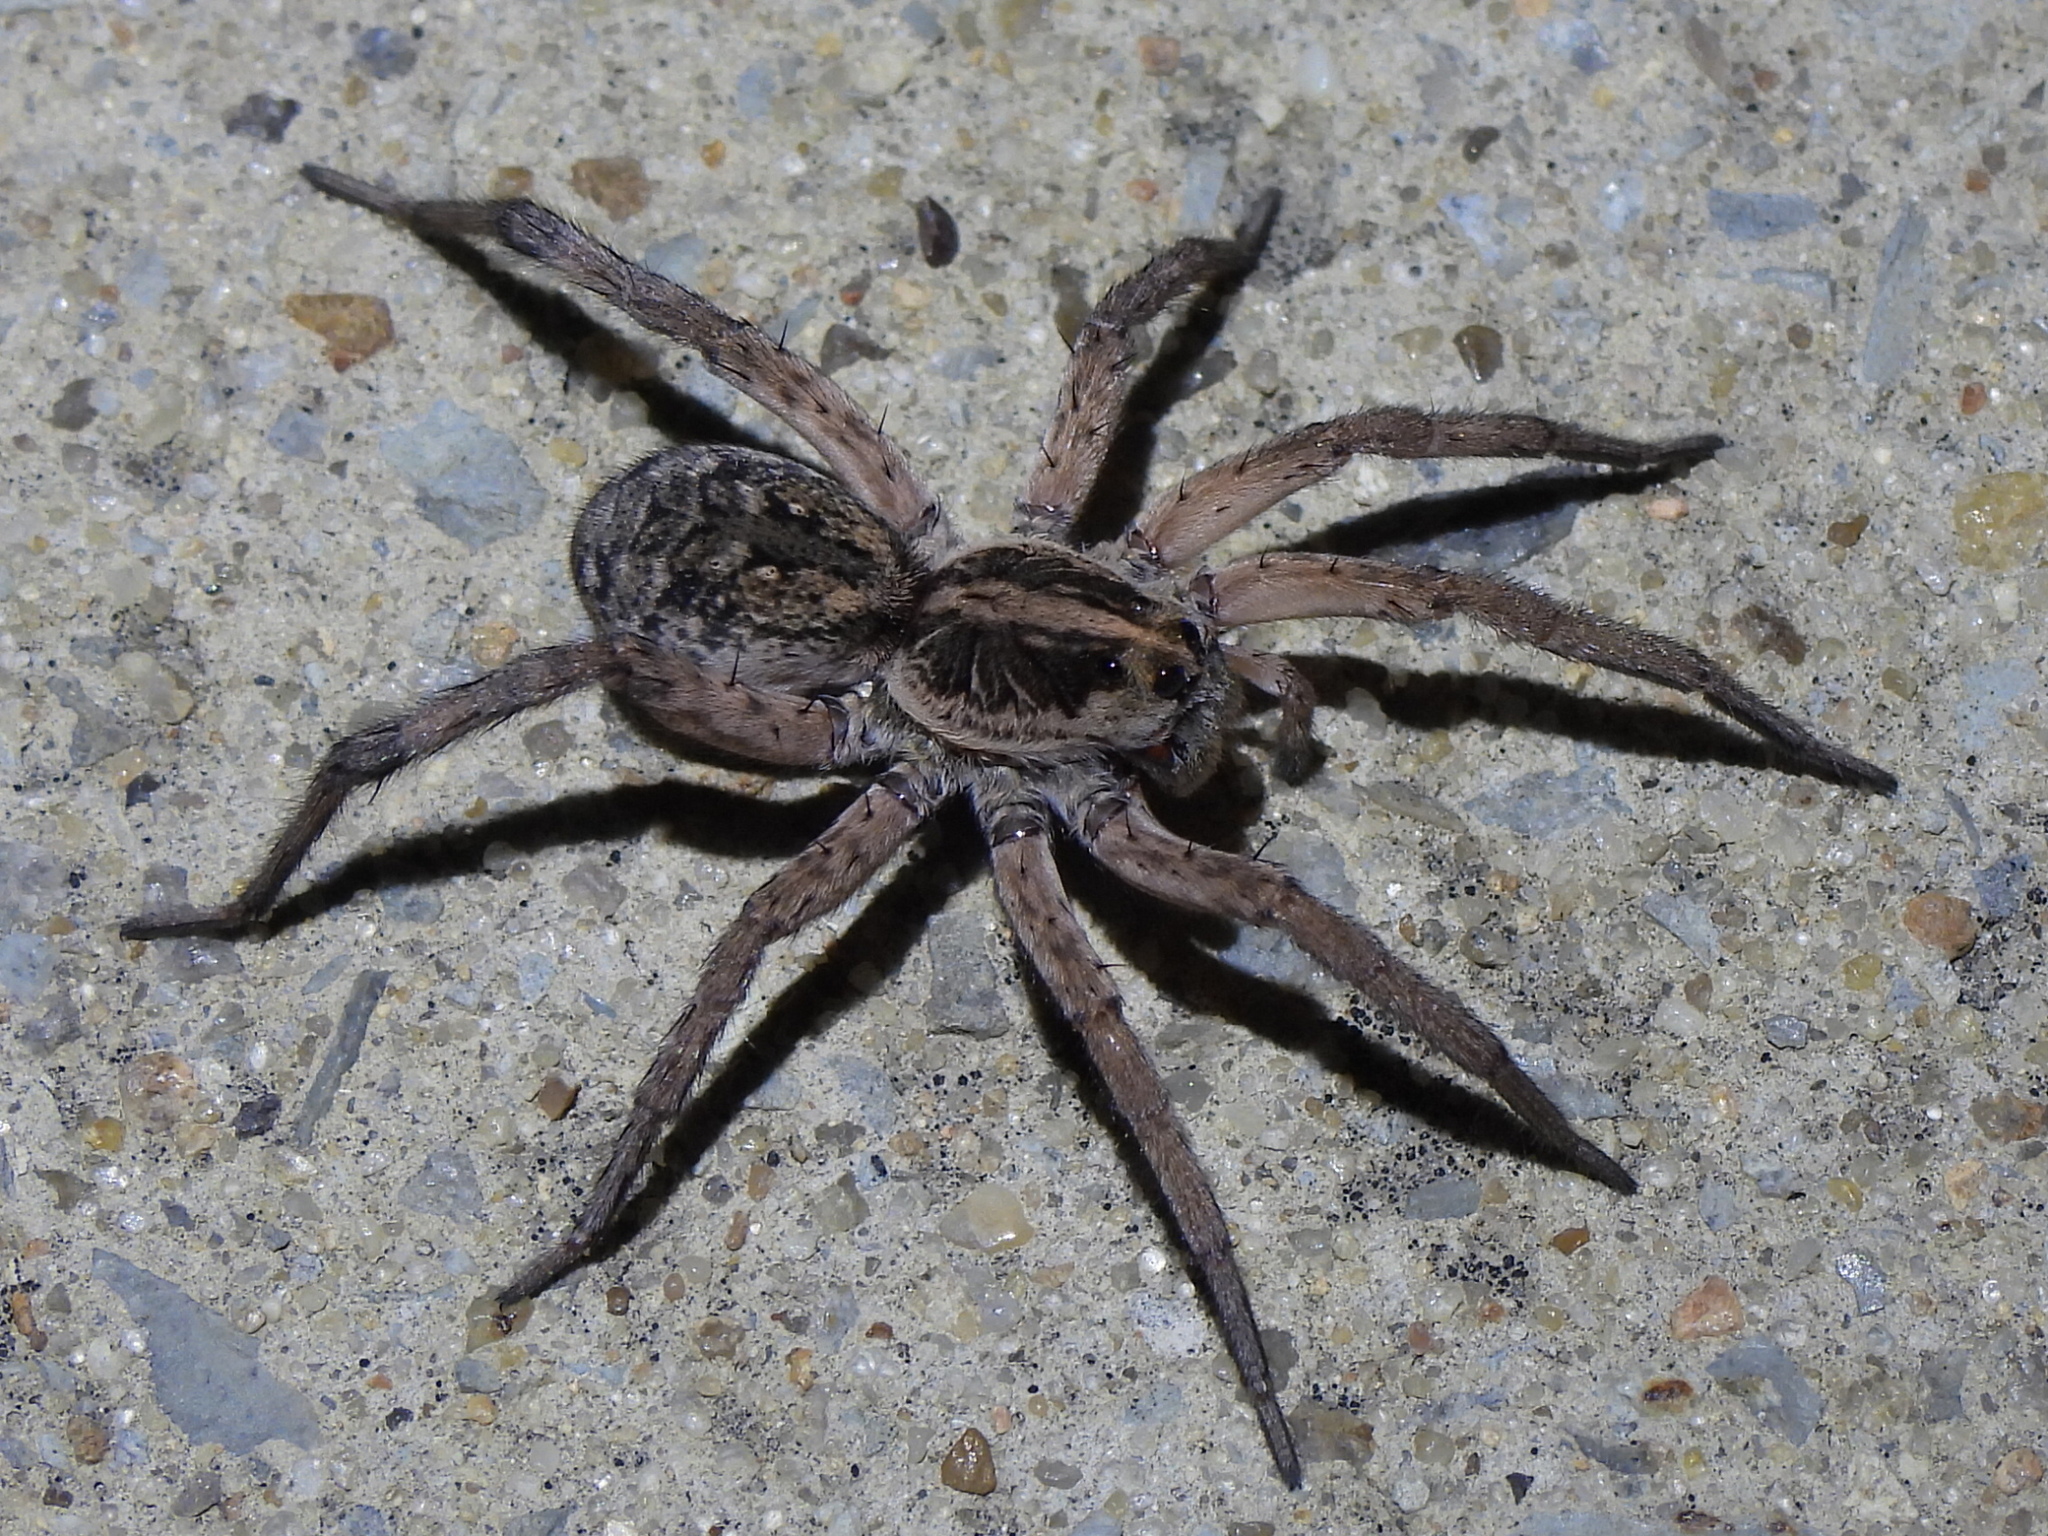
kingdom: Animalia
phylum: Arthropoda
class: Arachnida
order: Araneae
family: Lycosidae
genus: Hogna
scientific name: Hogna antelucana
